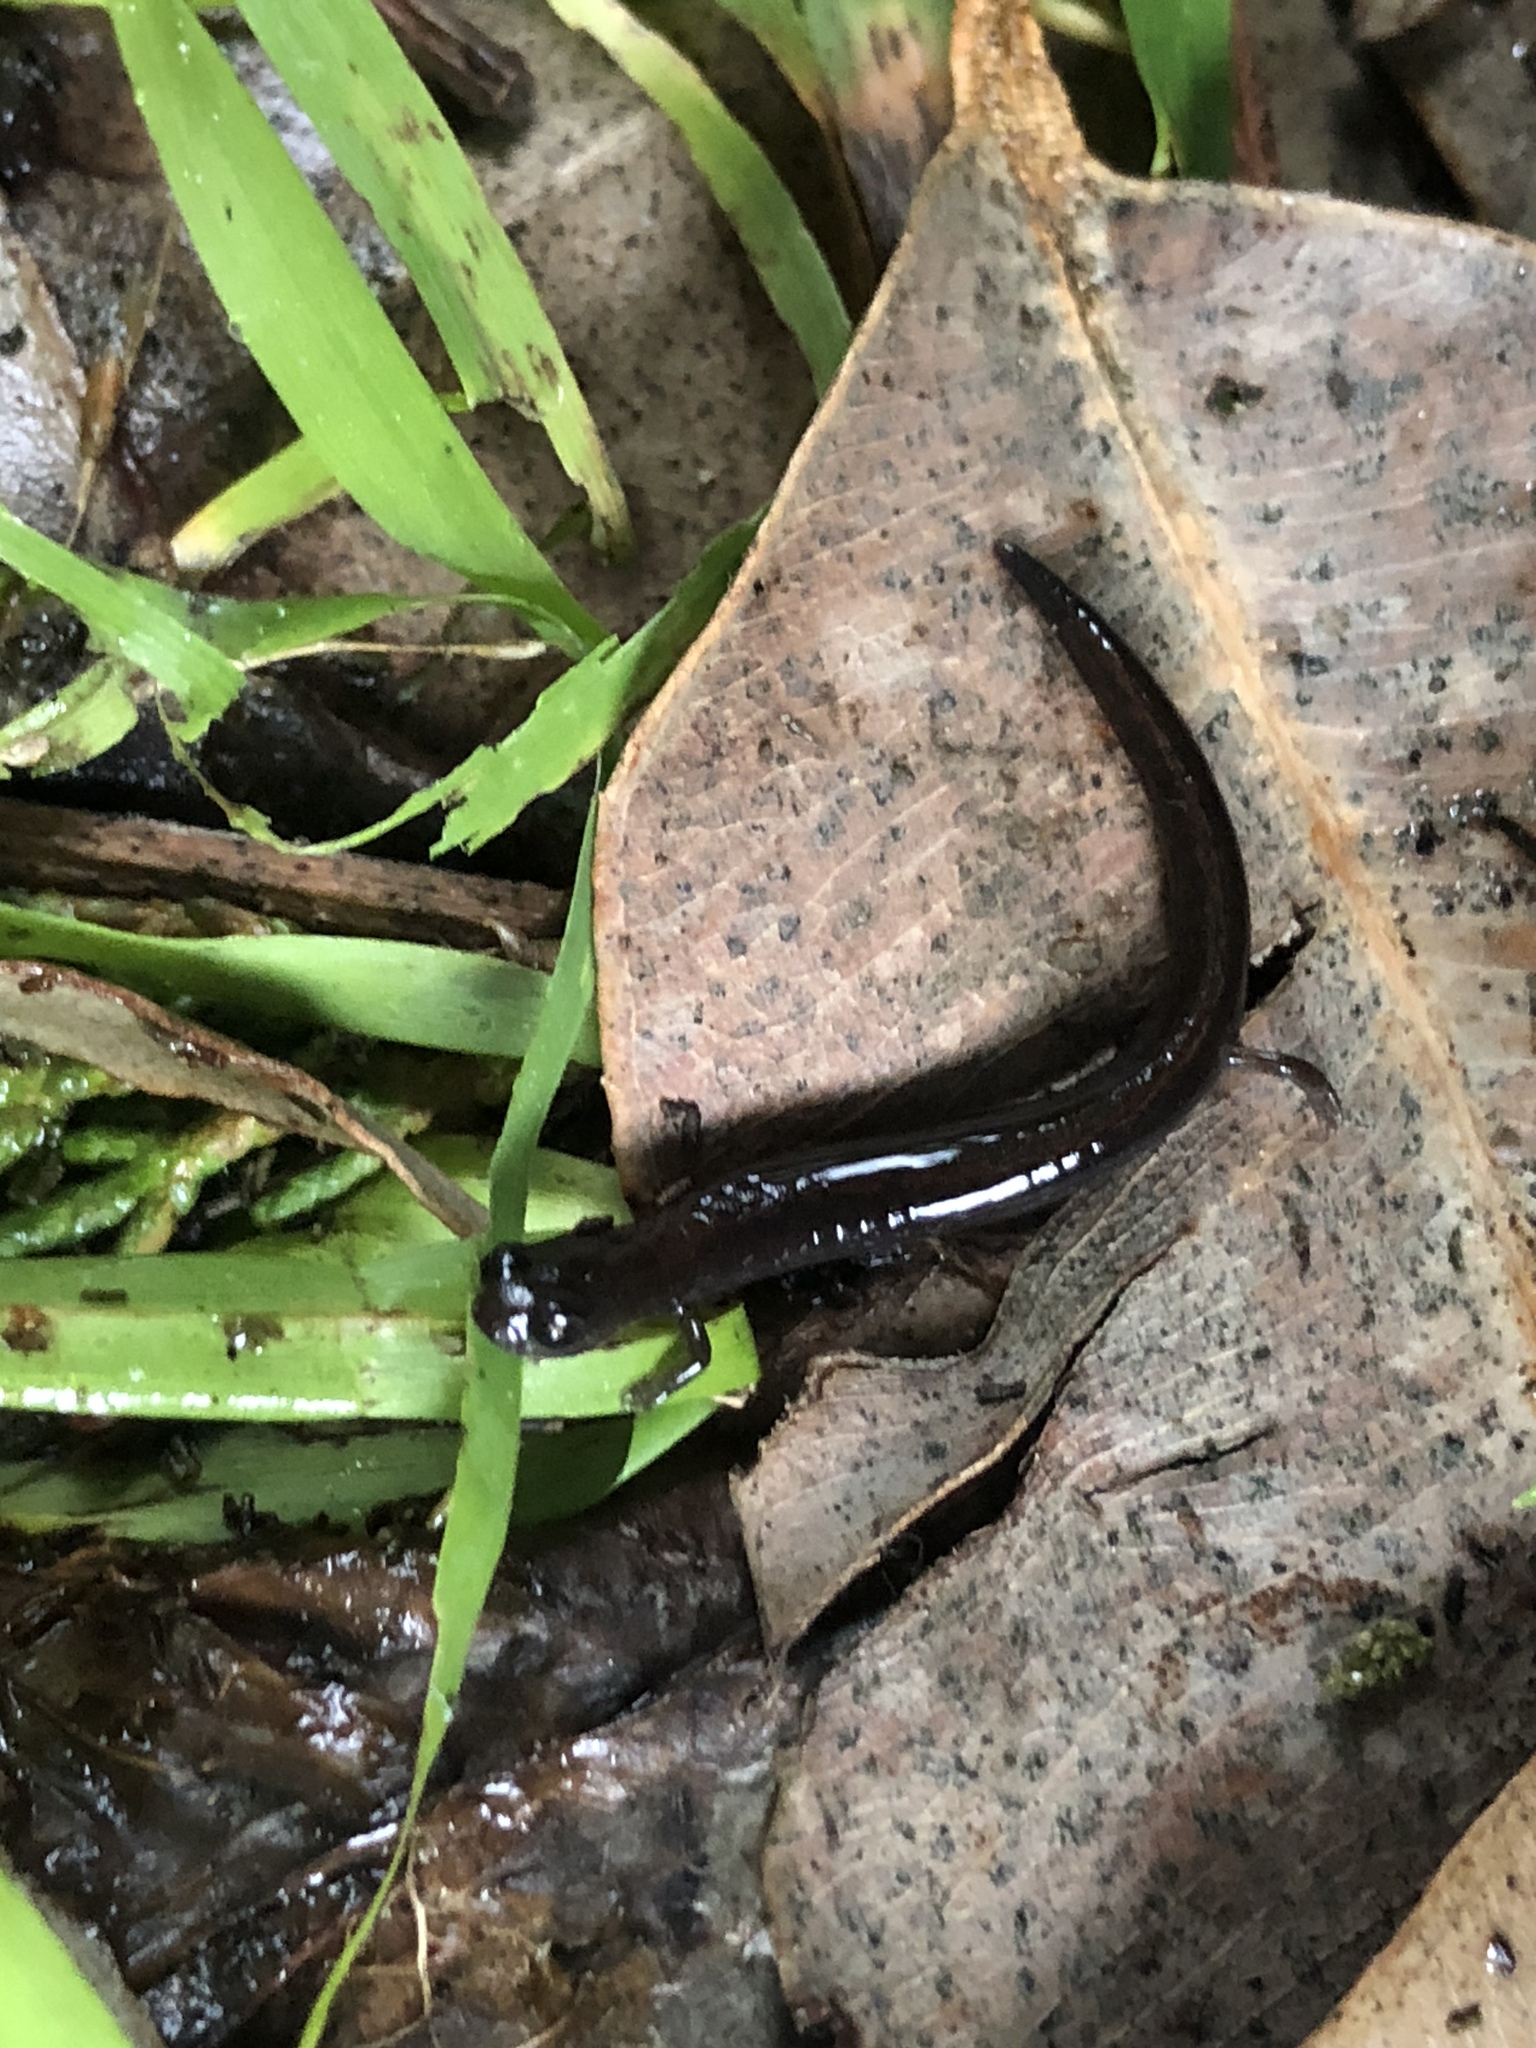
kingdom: Animalia
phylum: Chordata
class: Amphibia
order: Caudata
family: Plethodontidae
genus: Batrachoseps
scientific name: Batrachoseps attenuatus
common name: California slender salamander
